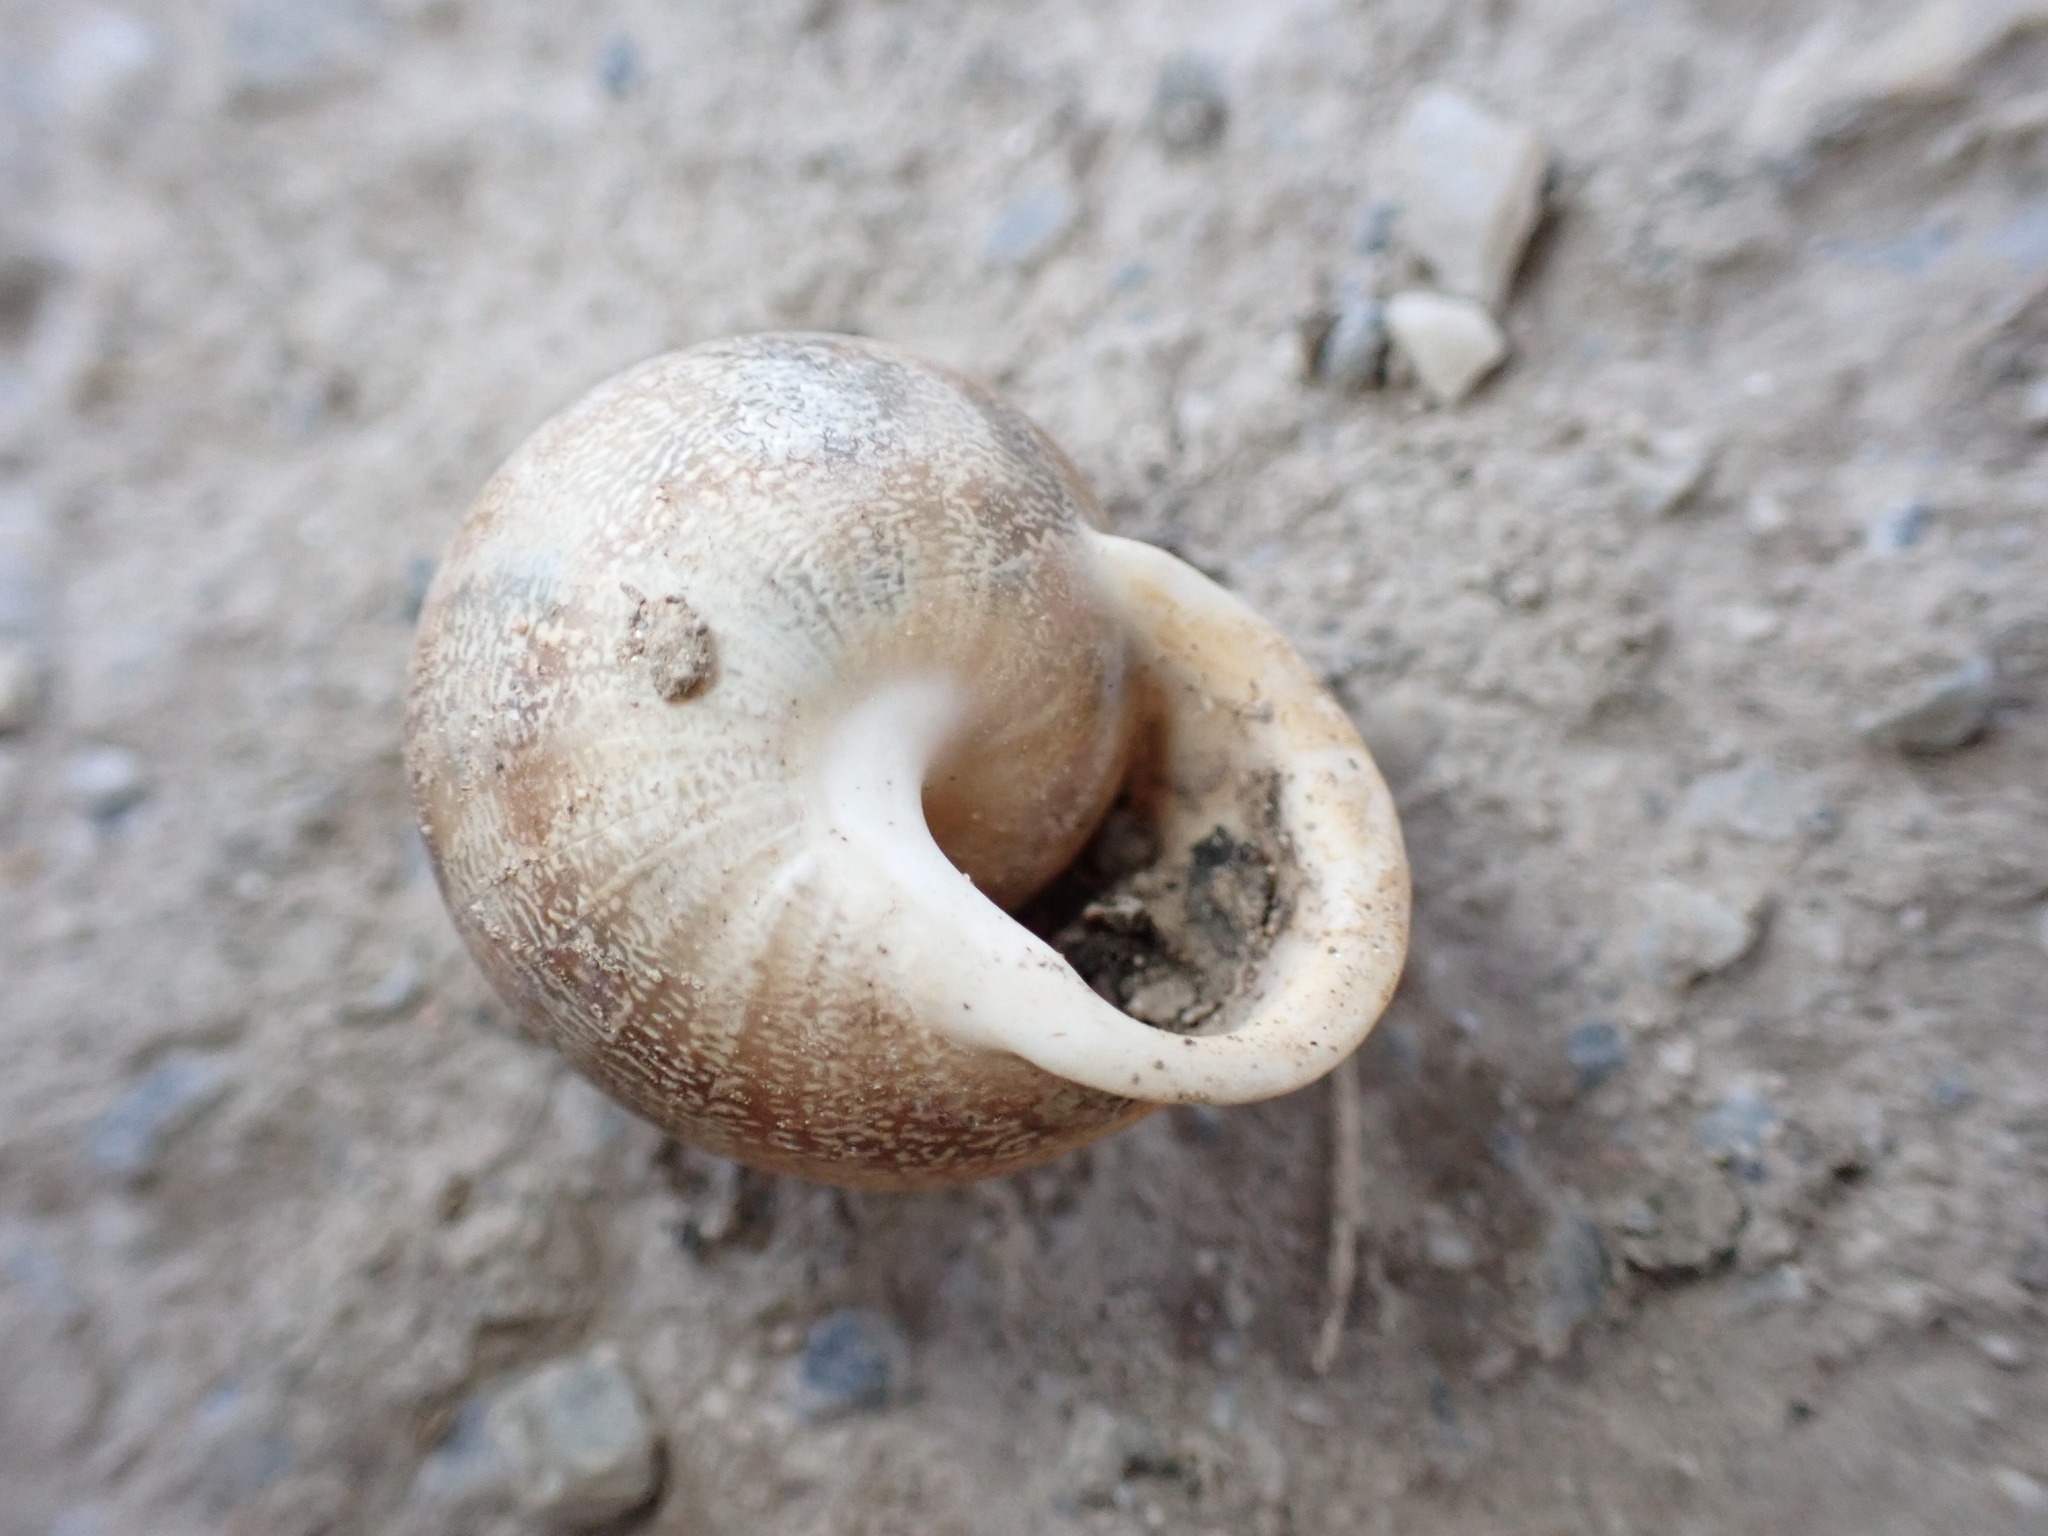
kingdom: Animalia
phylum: Mollusca
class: Gastropoda
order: Stylommatophora
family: Helicidae
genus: Eobania
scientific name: Eobania vermiculata
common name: Chocolateband snail
